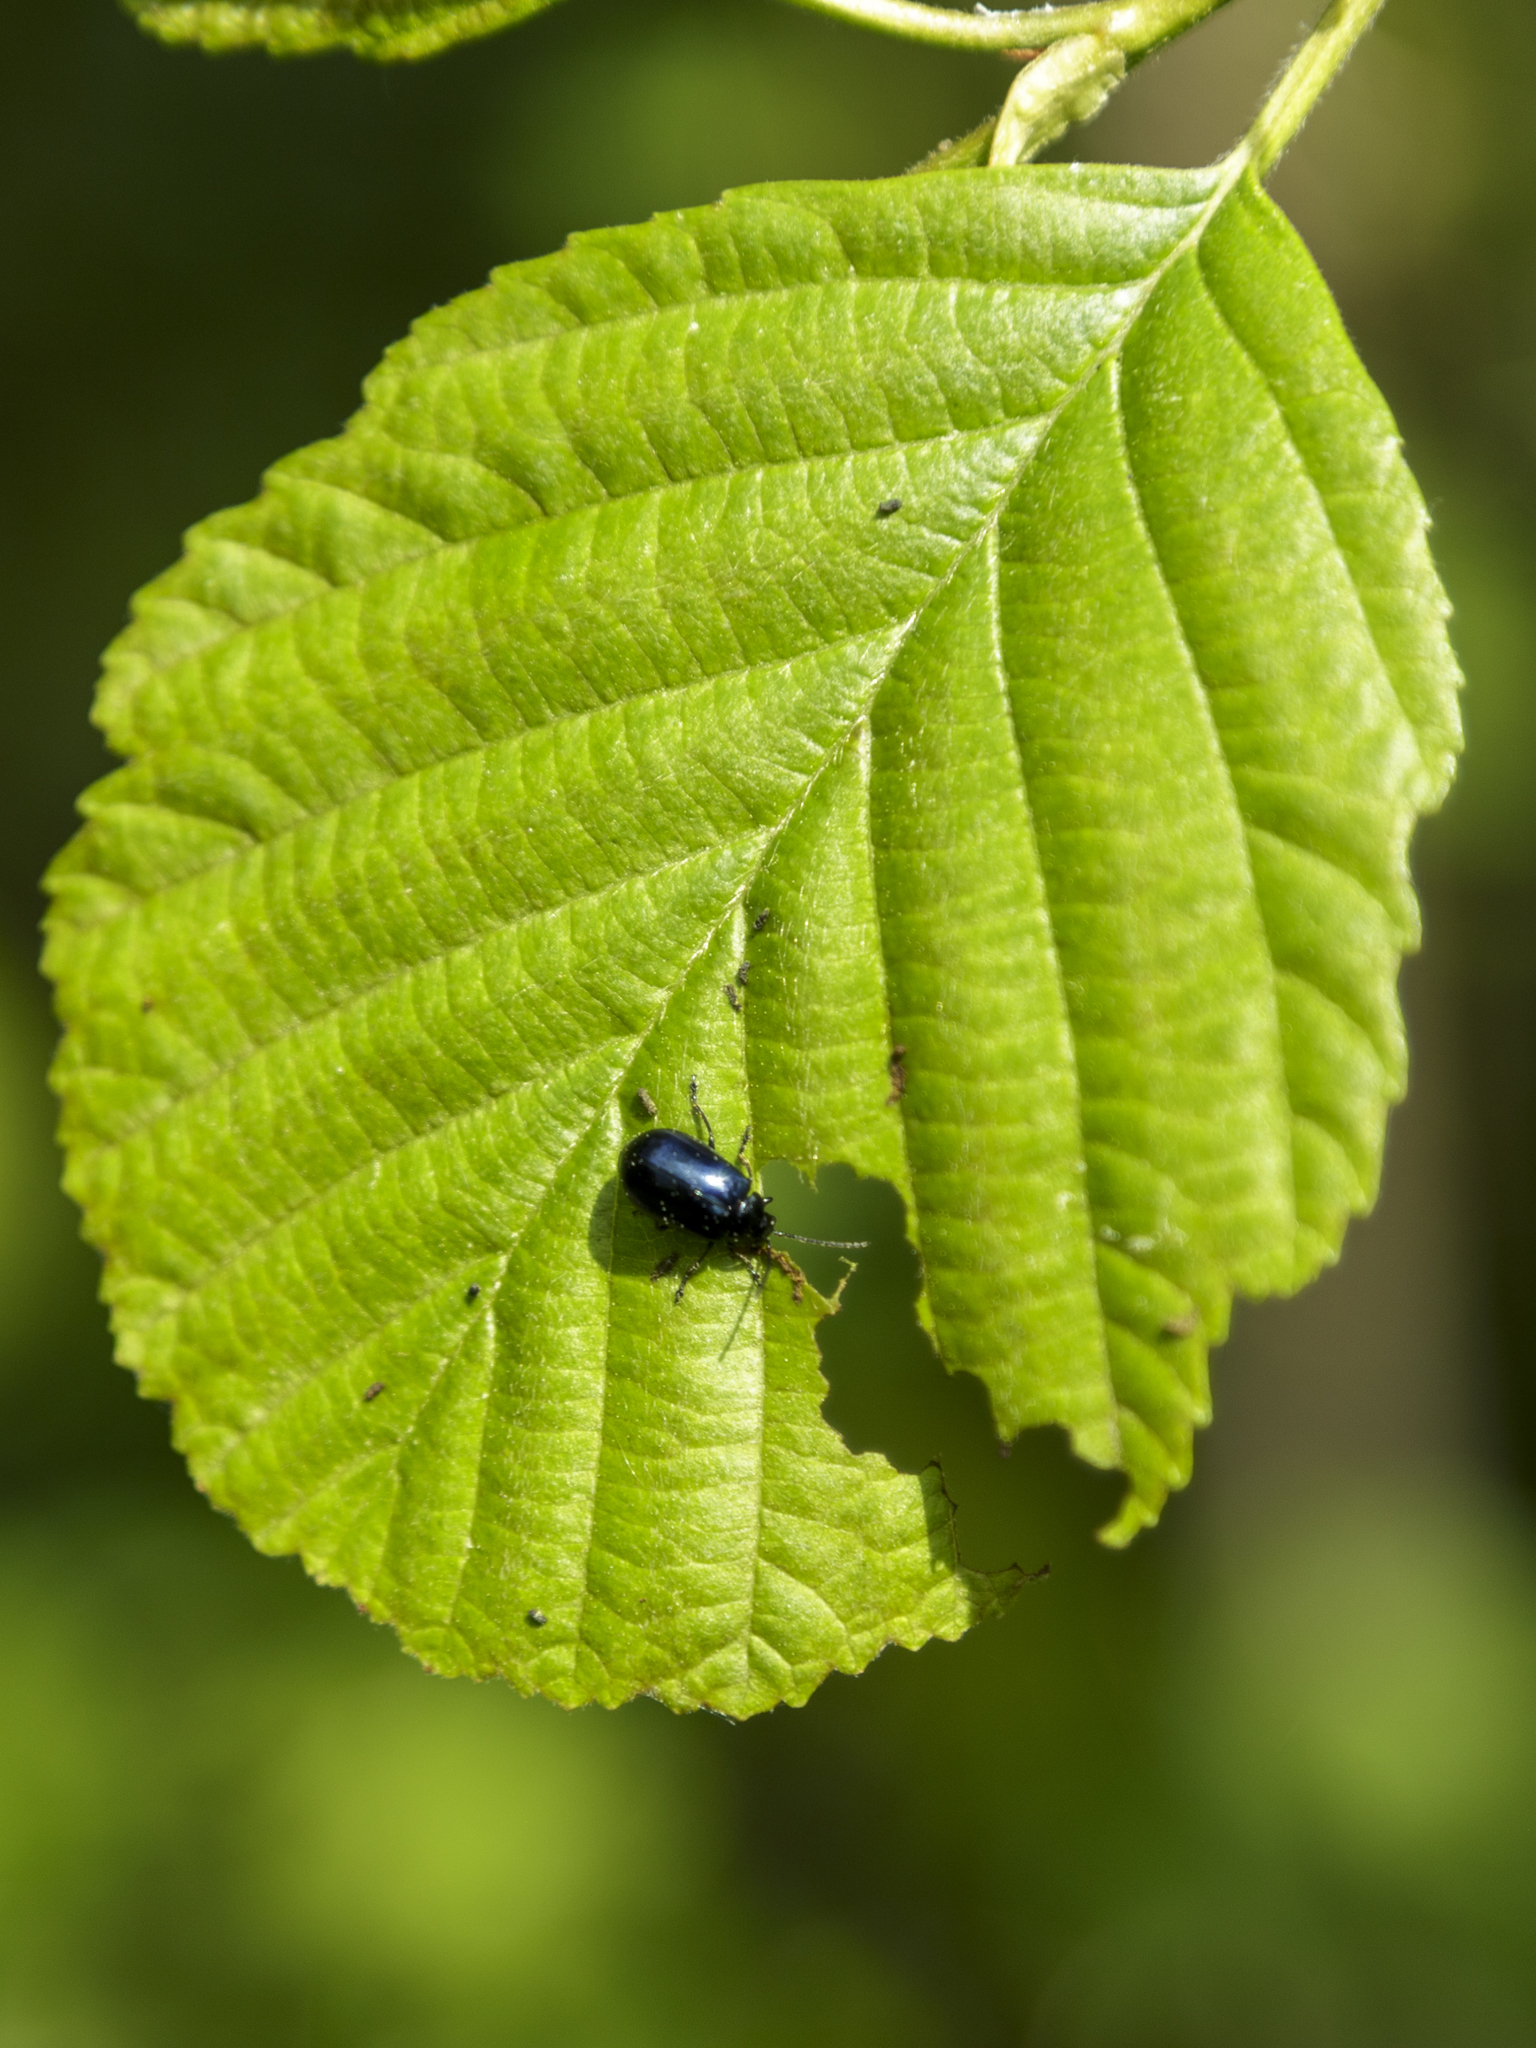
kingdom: Animalia
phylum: Arthropoda
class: Insecta
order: Coleoptera
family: Chrysomelidae
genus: Agelastica
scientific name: Agelastica alni
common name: Alder leaf beetle
